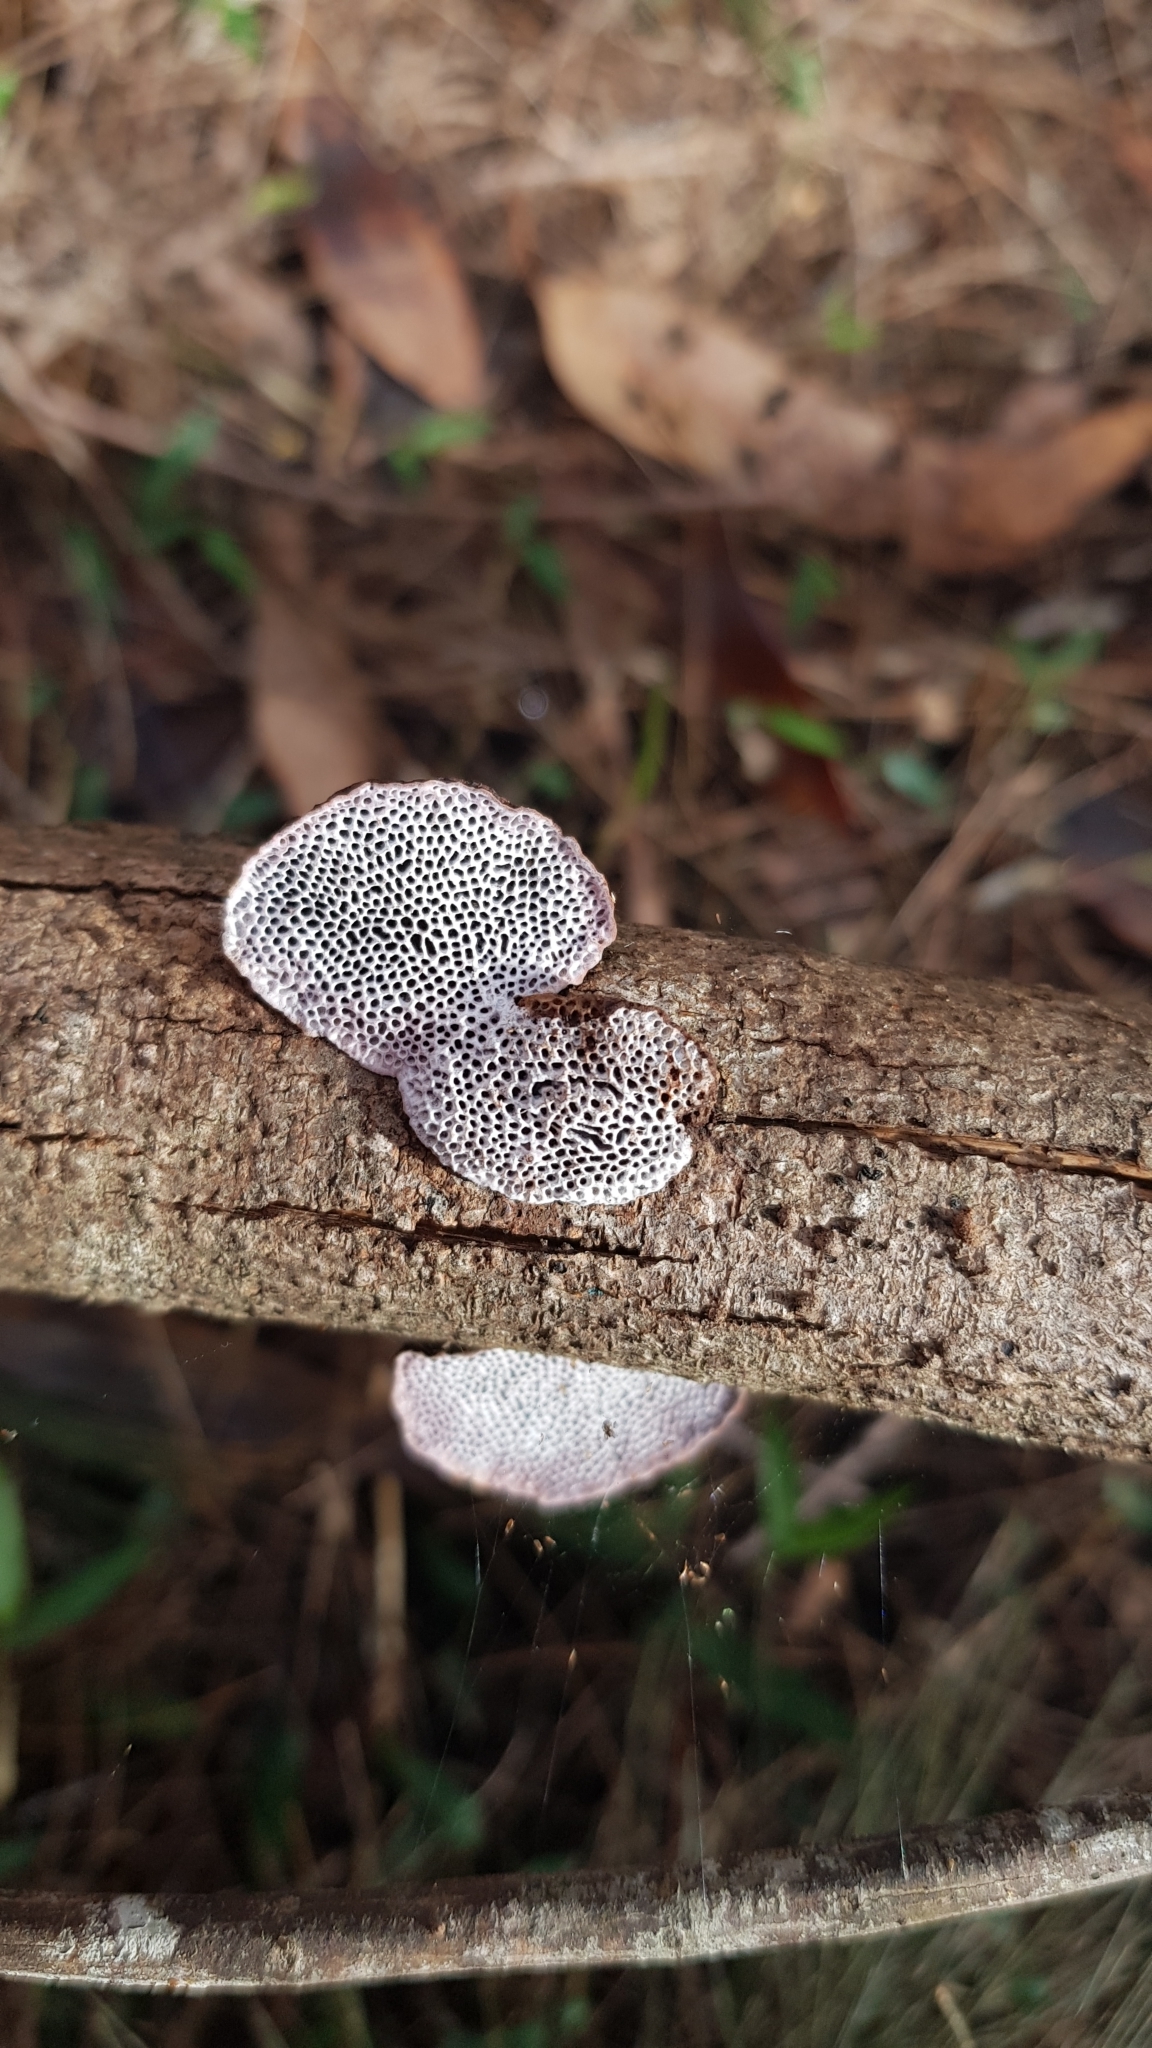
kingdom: Fungi
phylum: Basidiomycota
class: Agaricomycetes
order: Polyporales
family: Polyporaceae
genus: Phaeotrametes
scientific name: Phaeotrametes decipiens
